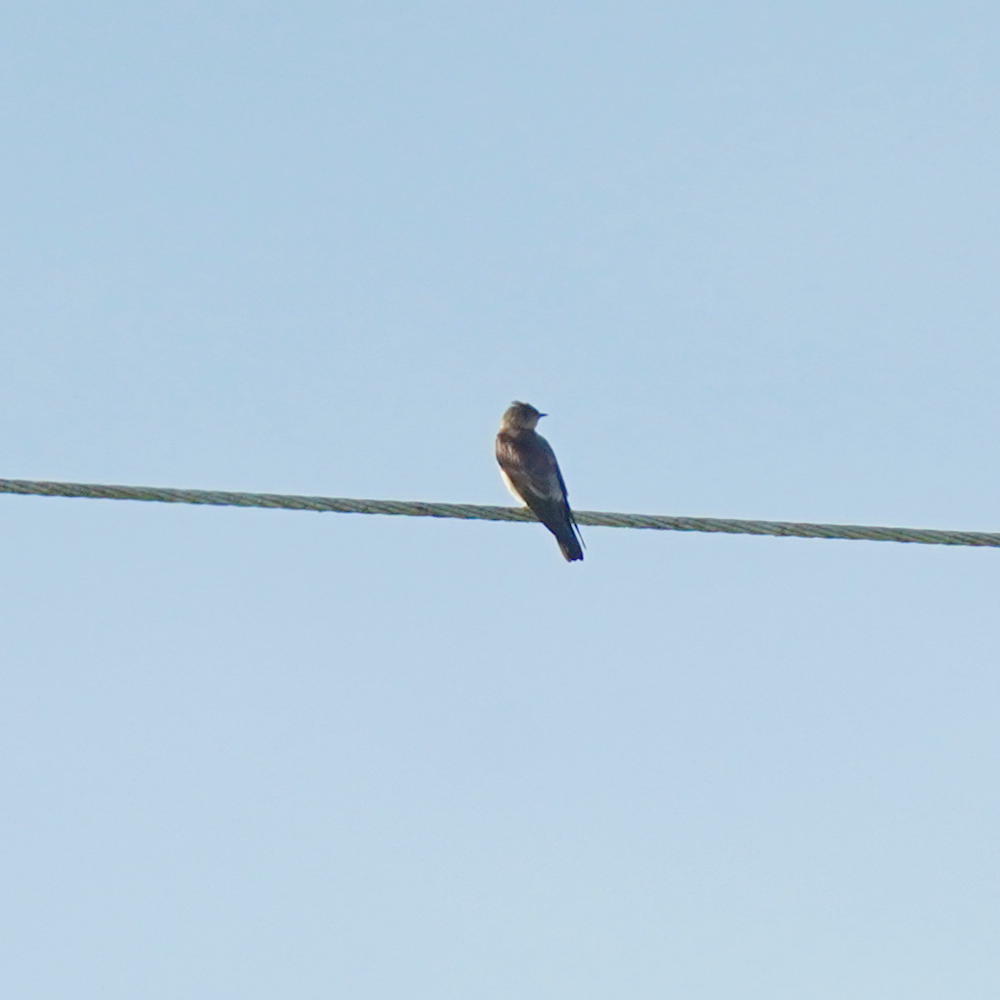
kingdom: Animalia
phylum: Chordata
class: Aves
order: Passeriformes
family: Hirundinidae
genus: Stelgidopteryx
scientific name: Stelgidopteryx ruficollis
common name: Southern rough-winged swallow
